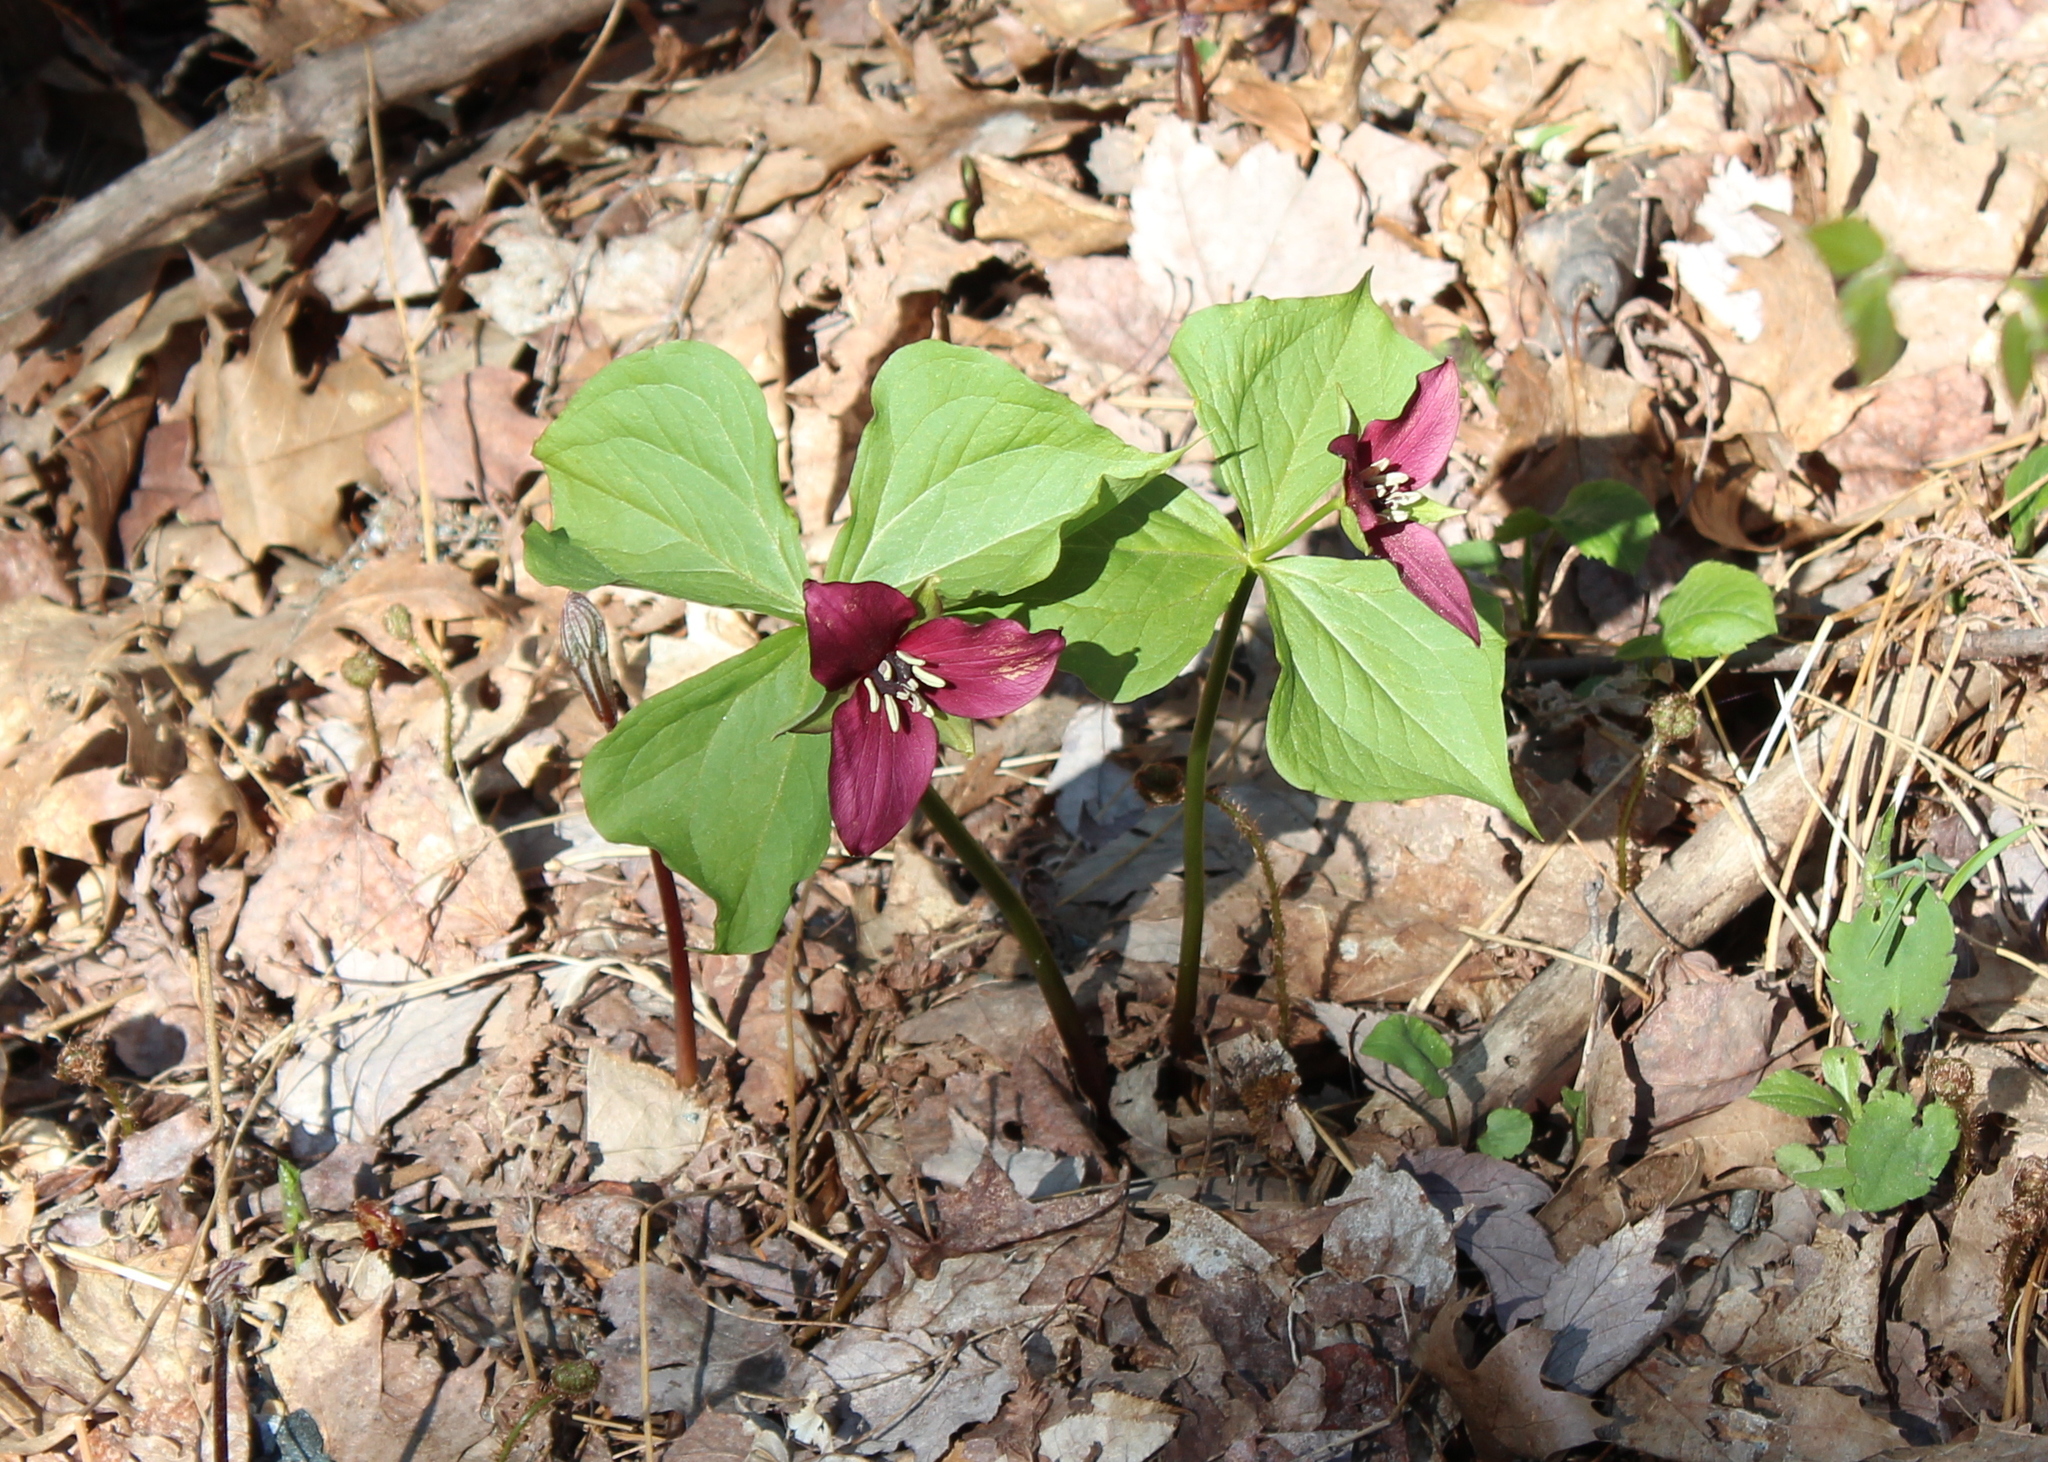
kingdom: Plantae
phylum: Tracheophyta
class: Liliopsida
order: Liliales
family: Melanthiaceae
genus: Trillium
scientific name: Trillium erectum
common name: Purple trillium
